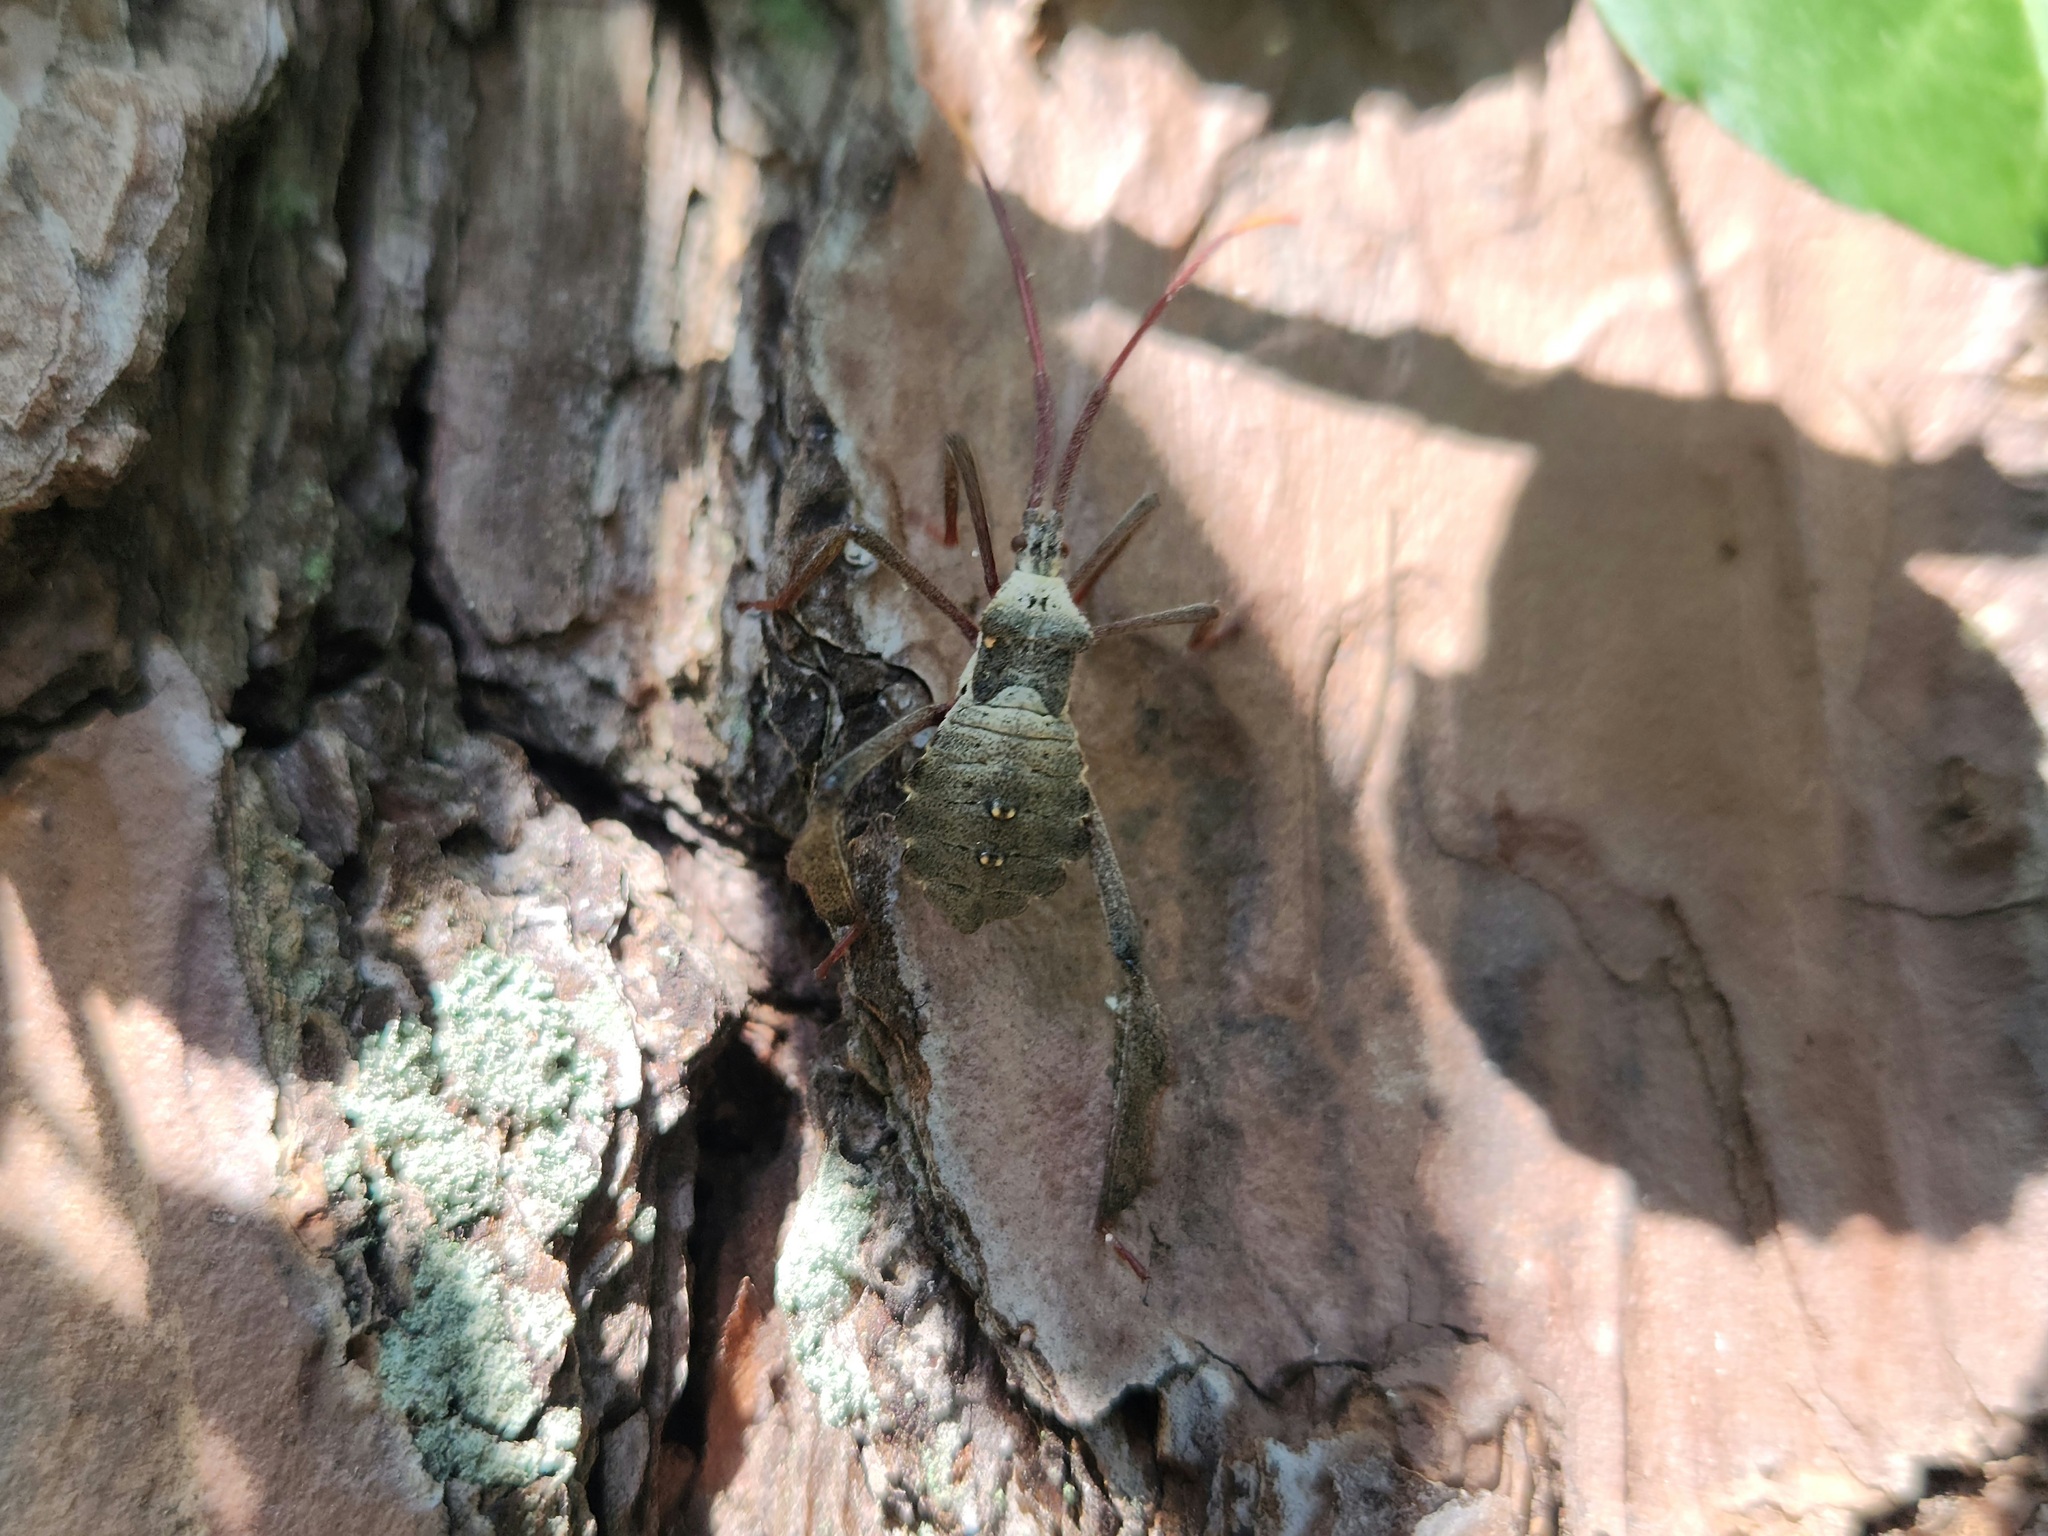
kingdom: Animalia
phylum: Arthropoda
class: Insecta
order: Hemiptera
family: Coreidae
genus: Acanthocephala
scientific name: Acanthocephala declivis
